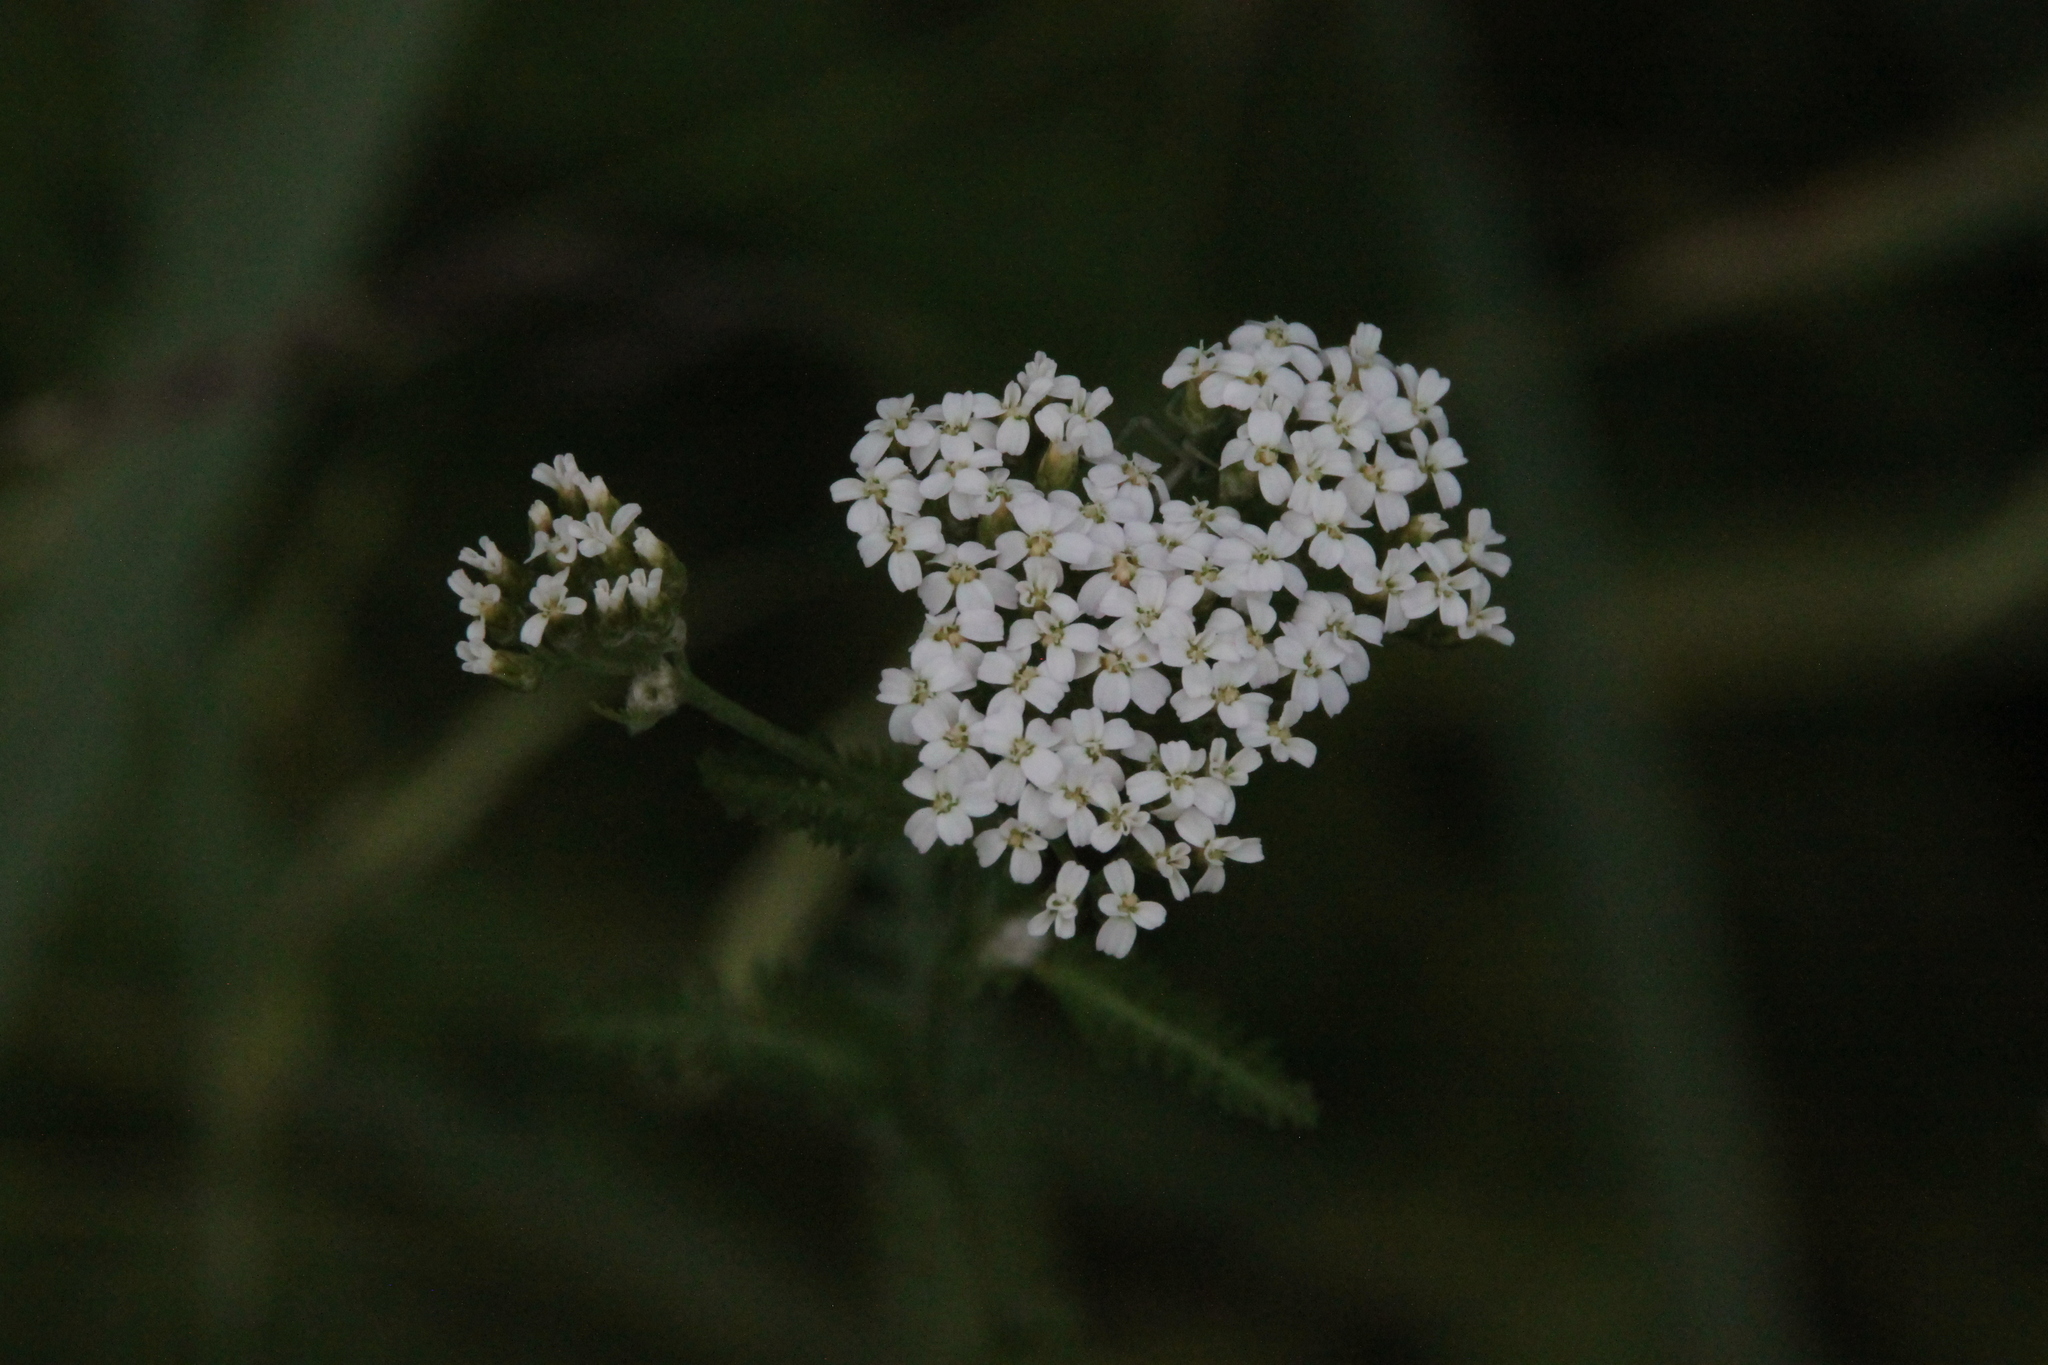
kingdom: Plantae
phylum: Tracheophyta
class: Magnoliopsida
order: Asterales
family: Asteraceae
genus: Achillea
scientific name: Achillea millefolium
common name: Yarrow
